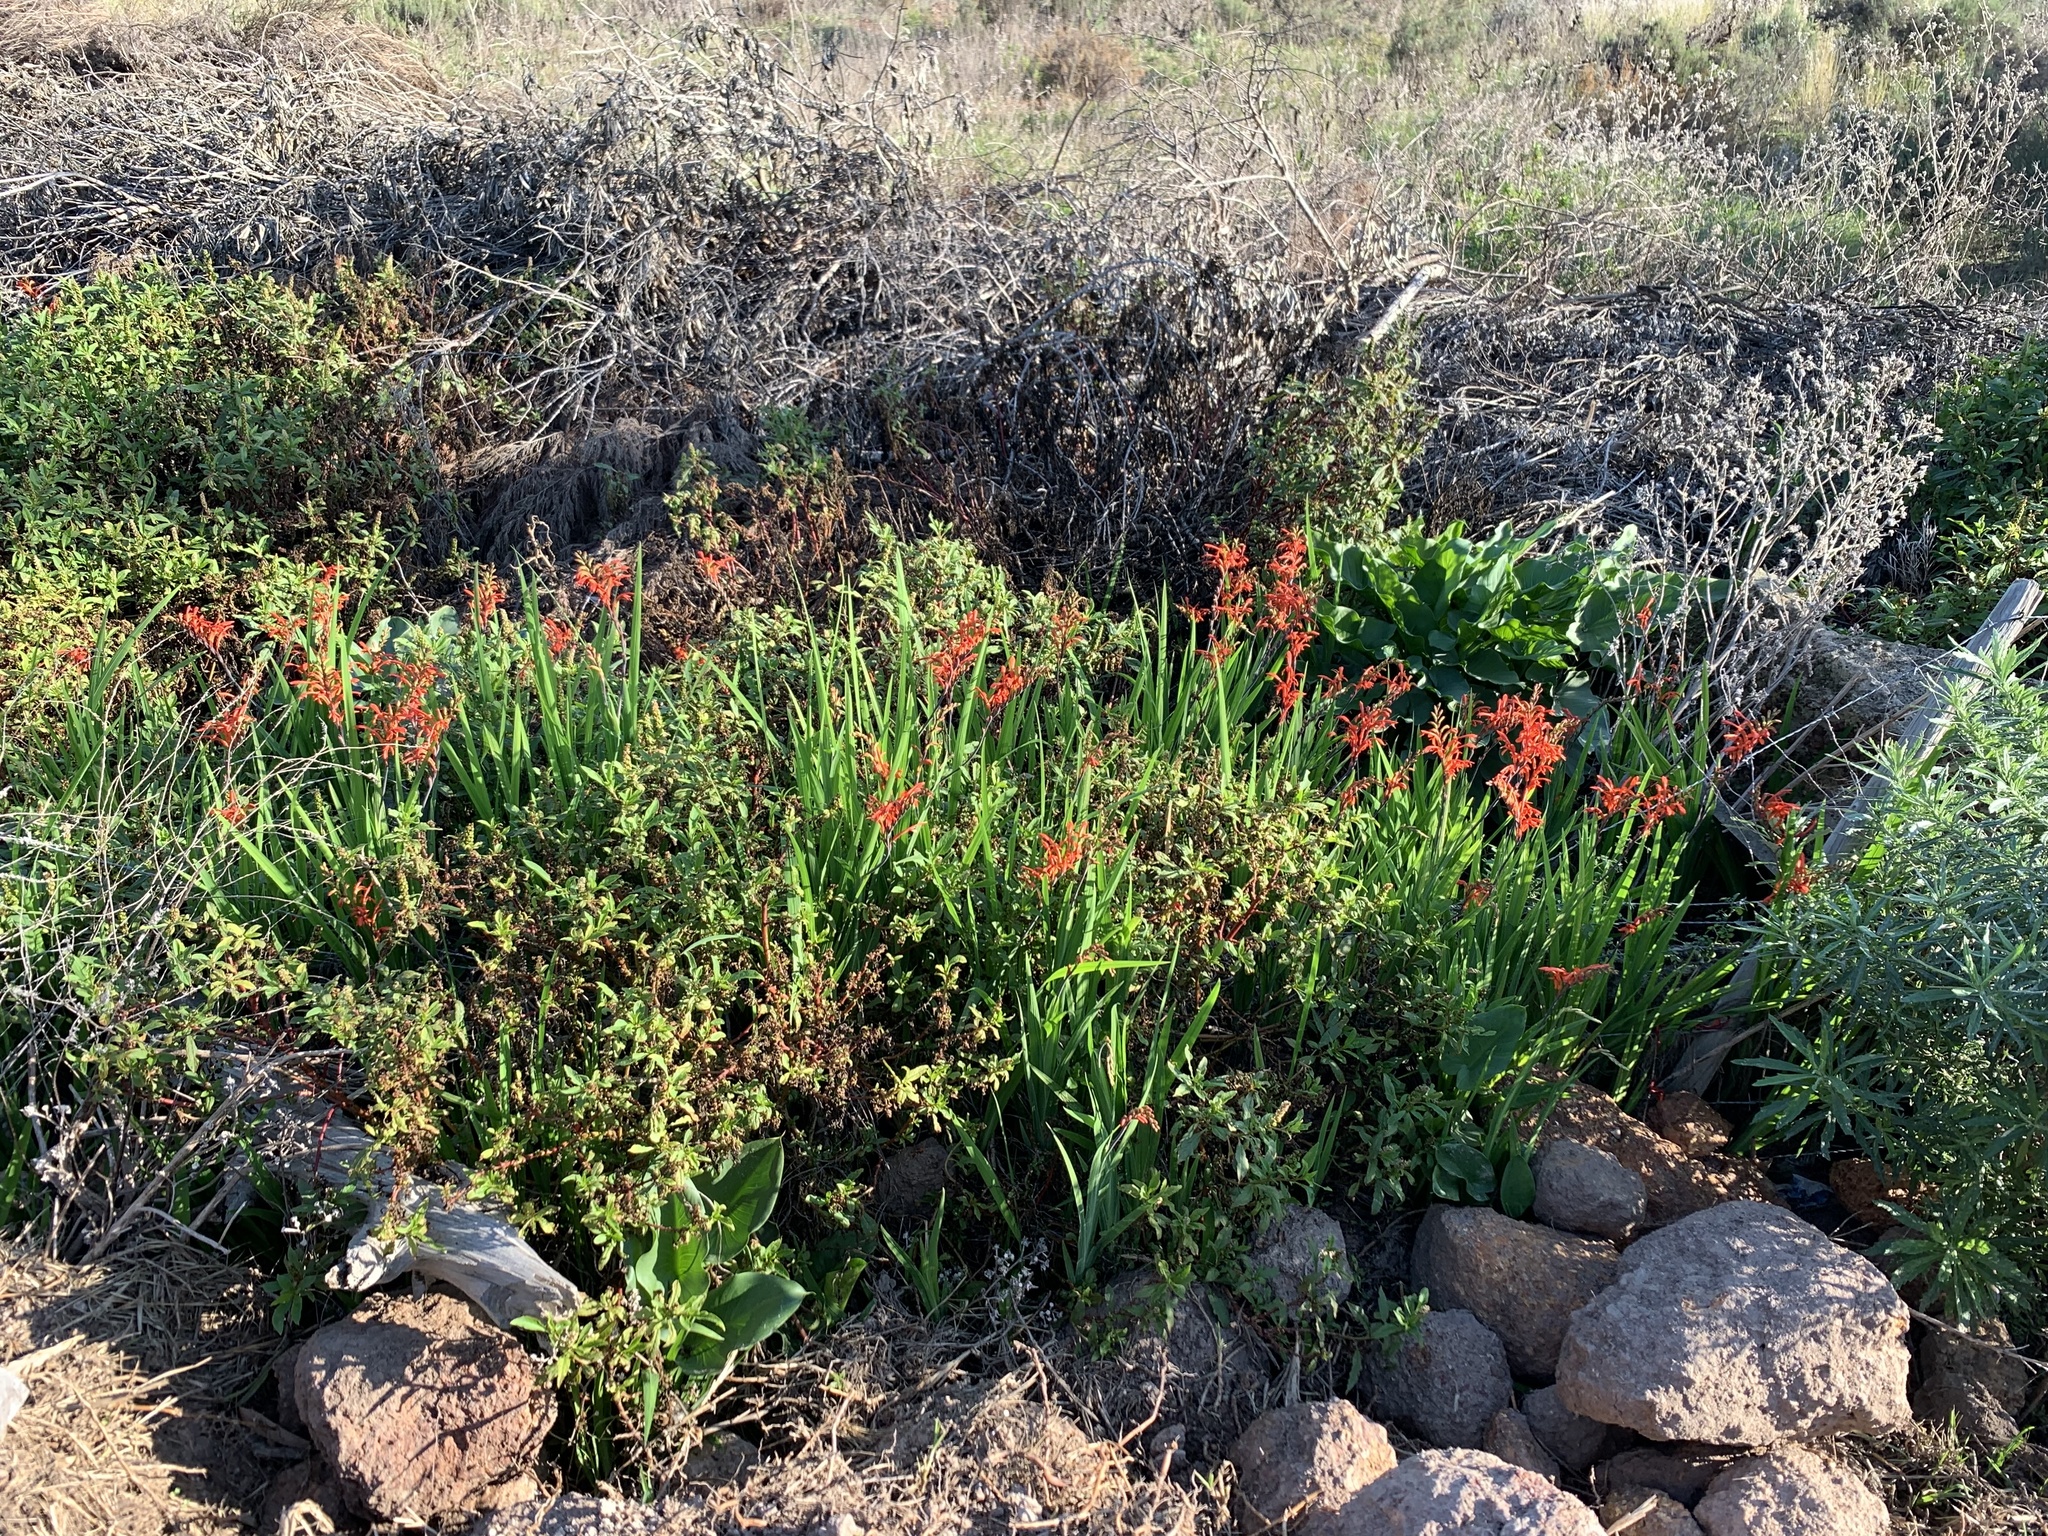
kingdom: Plantae
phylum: Tracheophyta
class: Liliopsida
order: Asparagales
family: Iridaceae
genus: Chasmanthe
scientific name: Chasmanthe aethiopica
